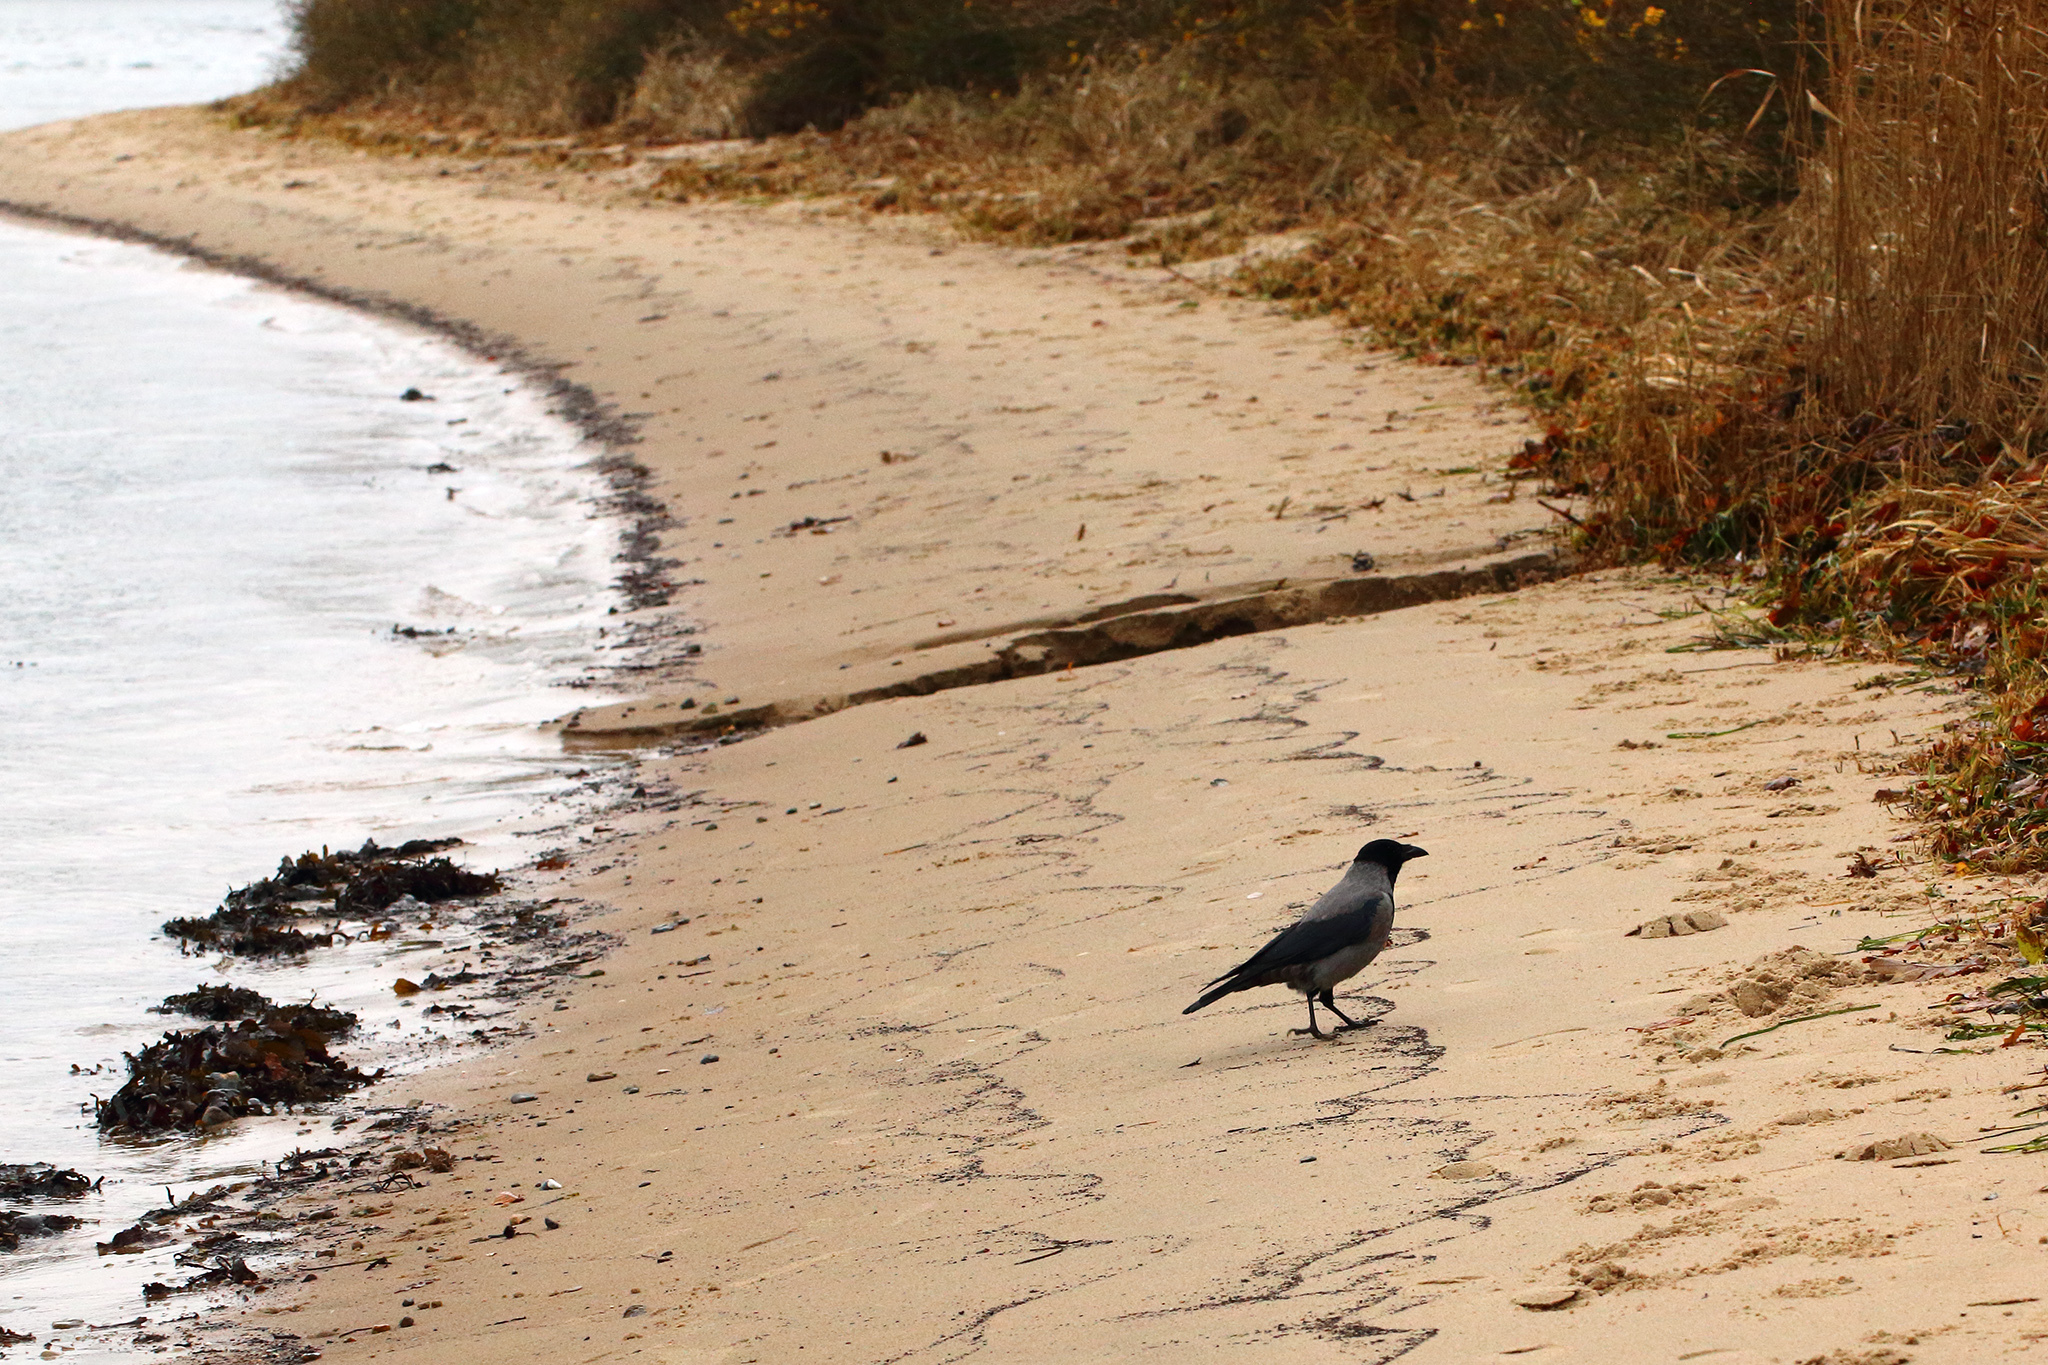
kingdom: Animalia
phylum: Chordata
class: Aves
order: Passeriformes
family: Corvidae
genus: Corvus
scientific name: Corvus cornix
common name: Hooded crow
